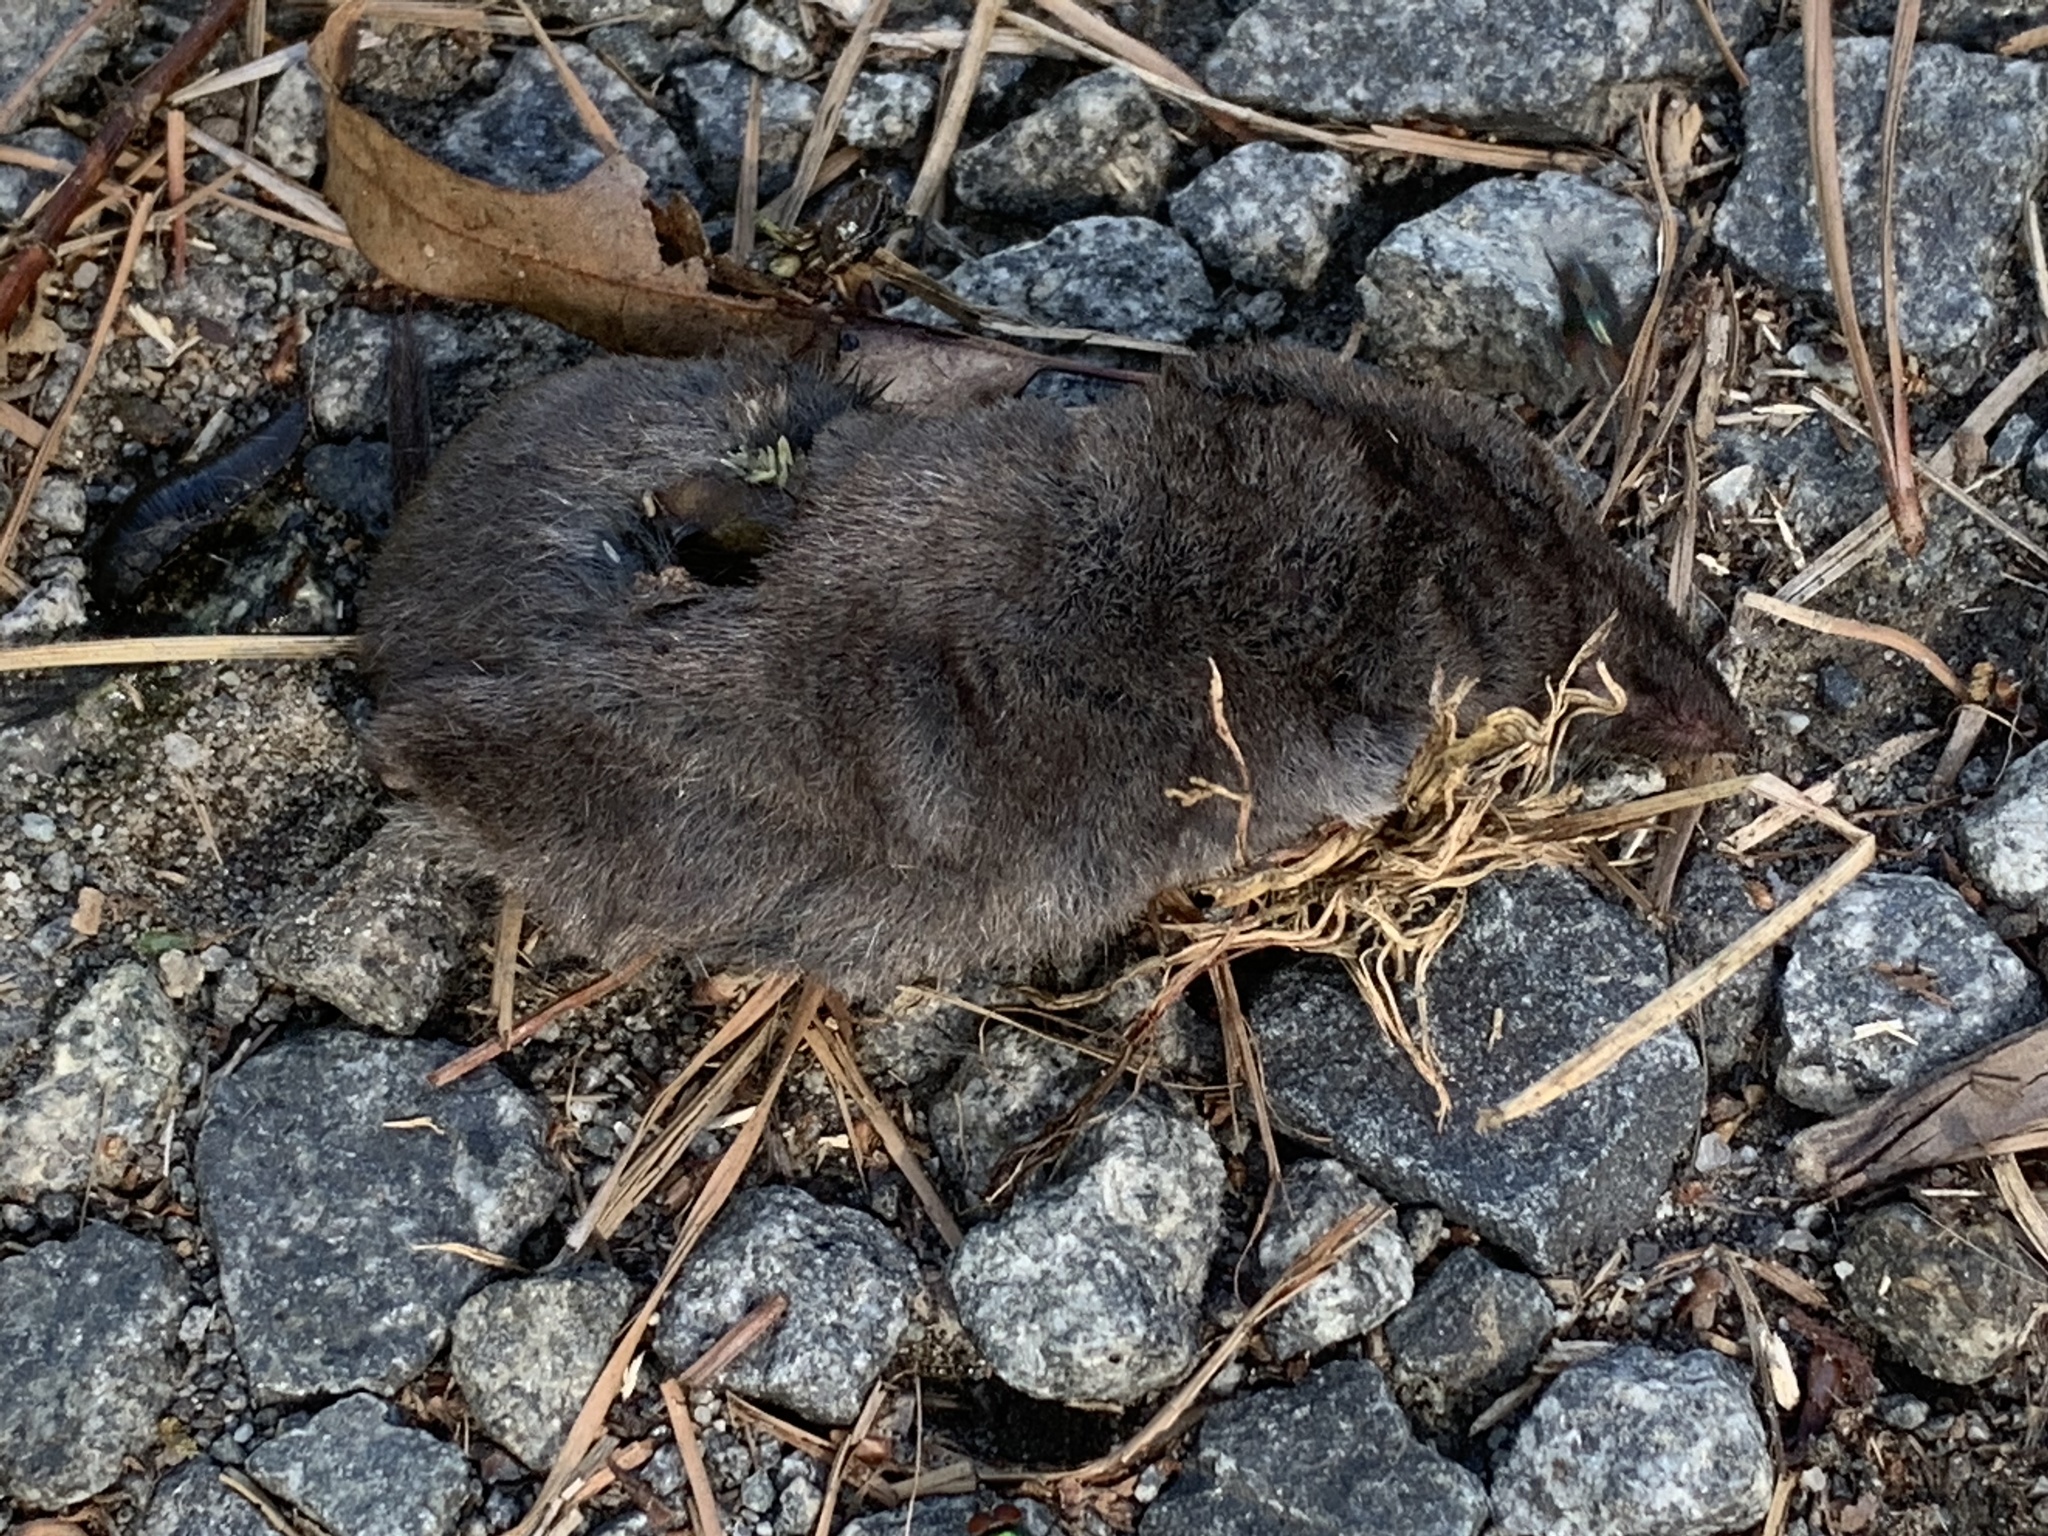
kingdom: Animalia
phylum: Chordata
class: Mammalia
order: Soricomorpha
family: Soricidae
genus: Blarina
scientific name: Blarina brevicauda
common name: Northern short-tailed shrew
